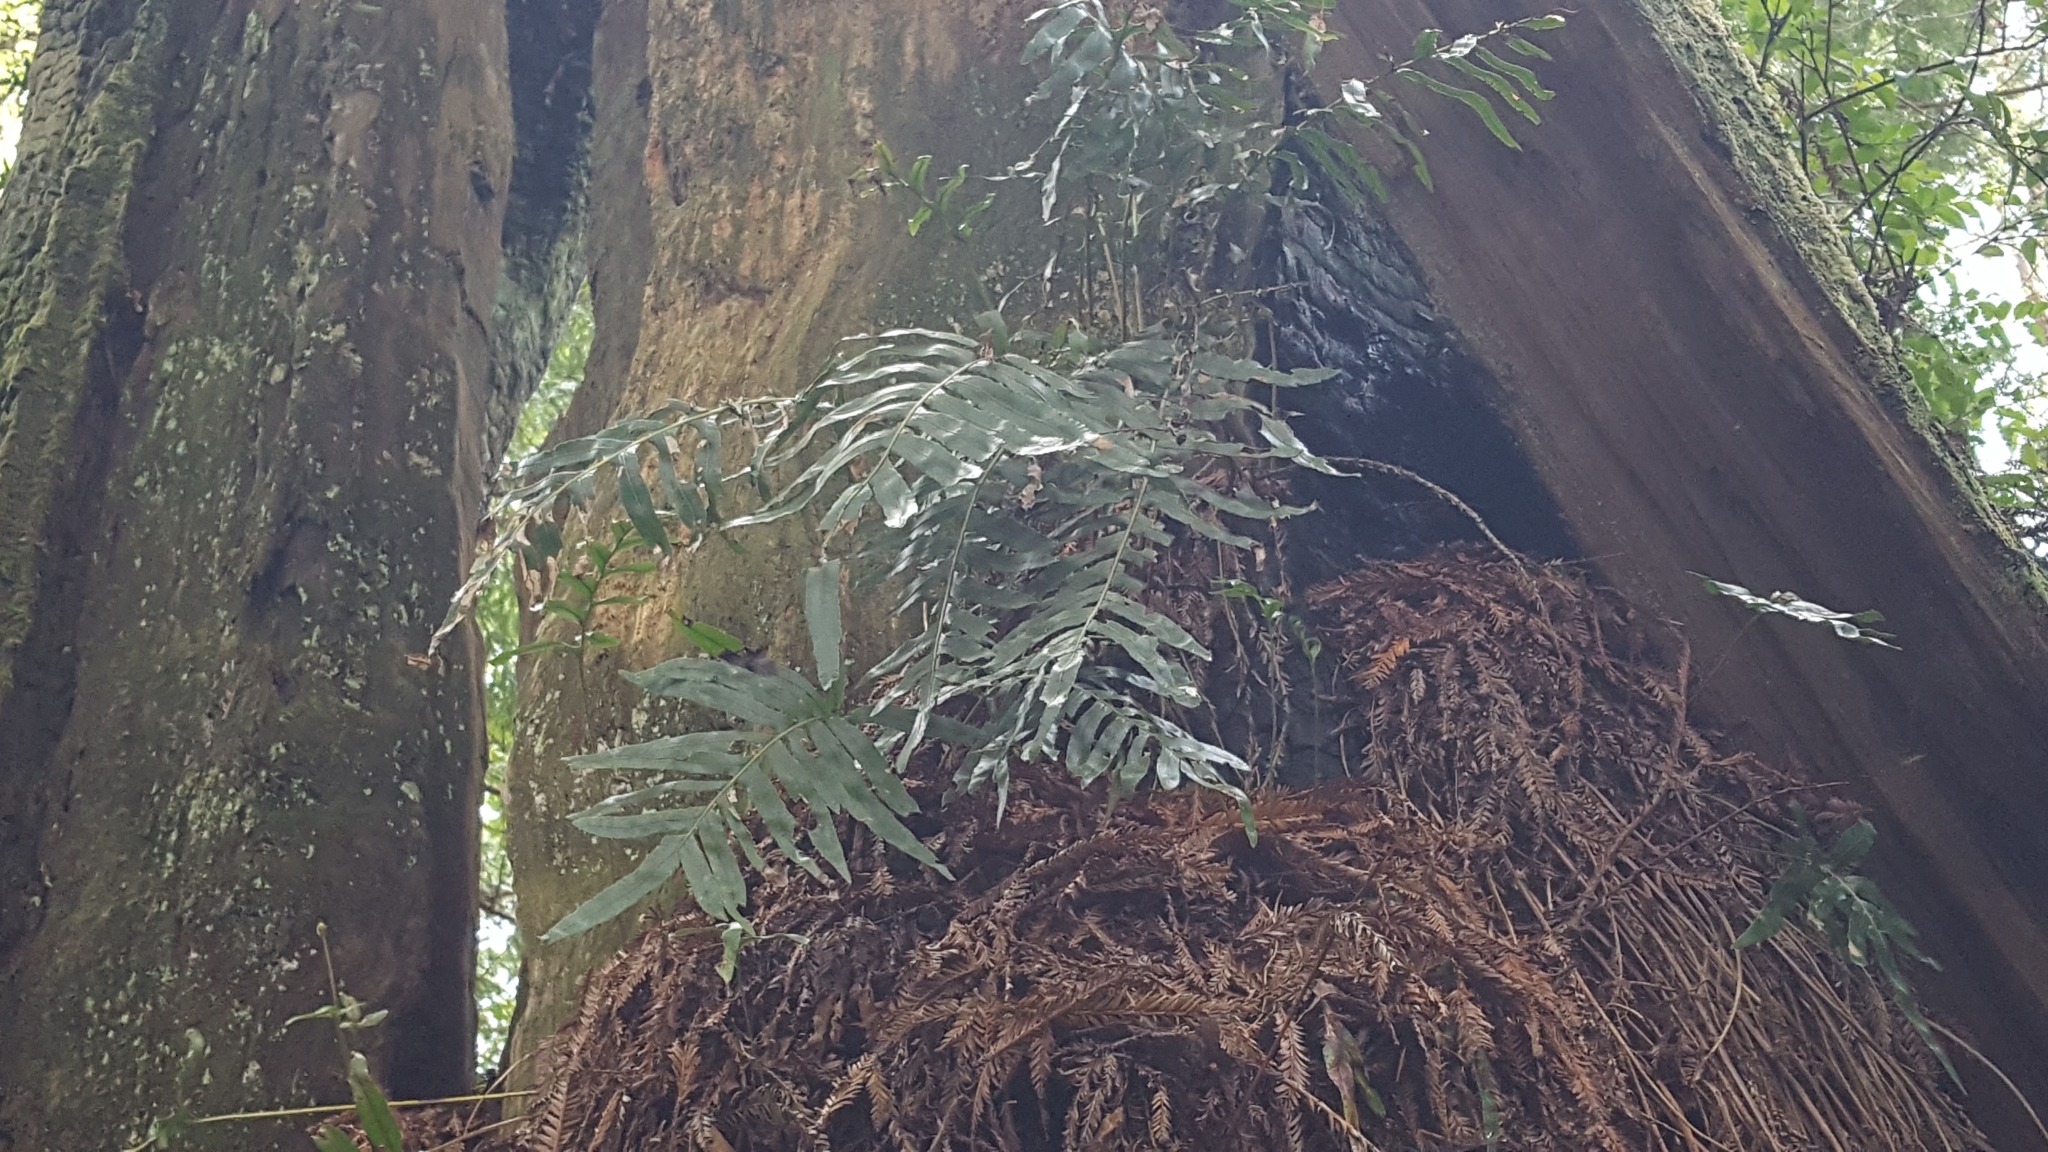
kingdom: Plantae
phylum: Tracheophyta
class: Polypodiopsida
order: Polypodiales
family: Polypodiaceae
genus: Polypodium
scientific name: Polypodium scouleri
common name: Scouler's polypody
